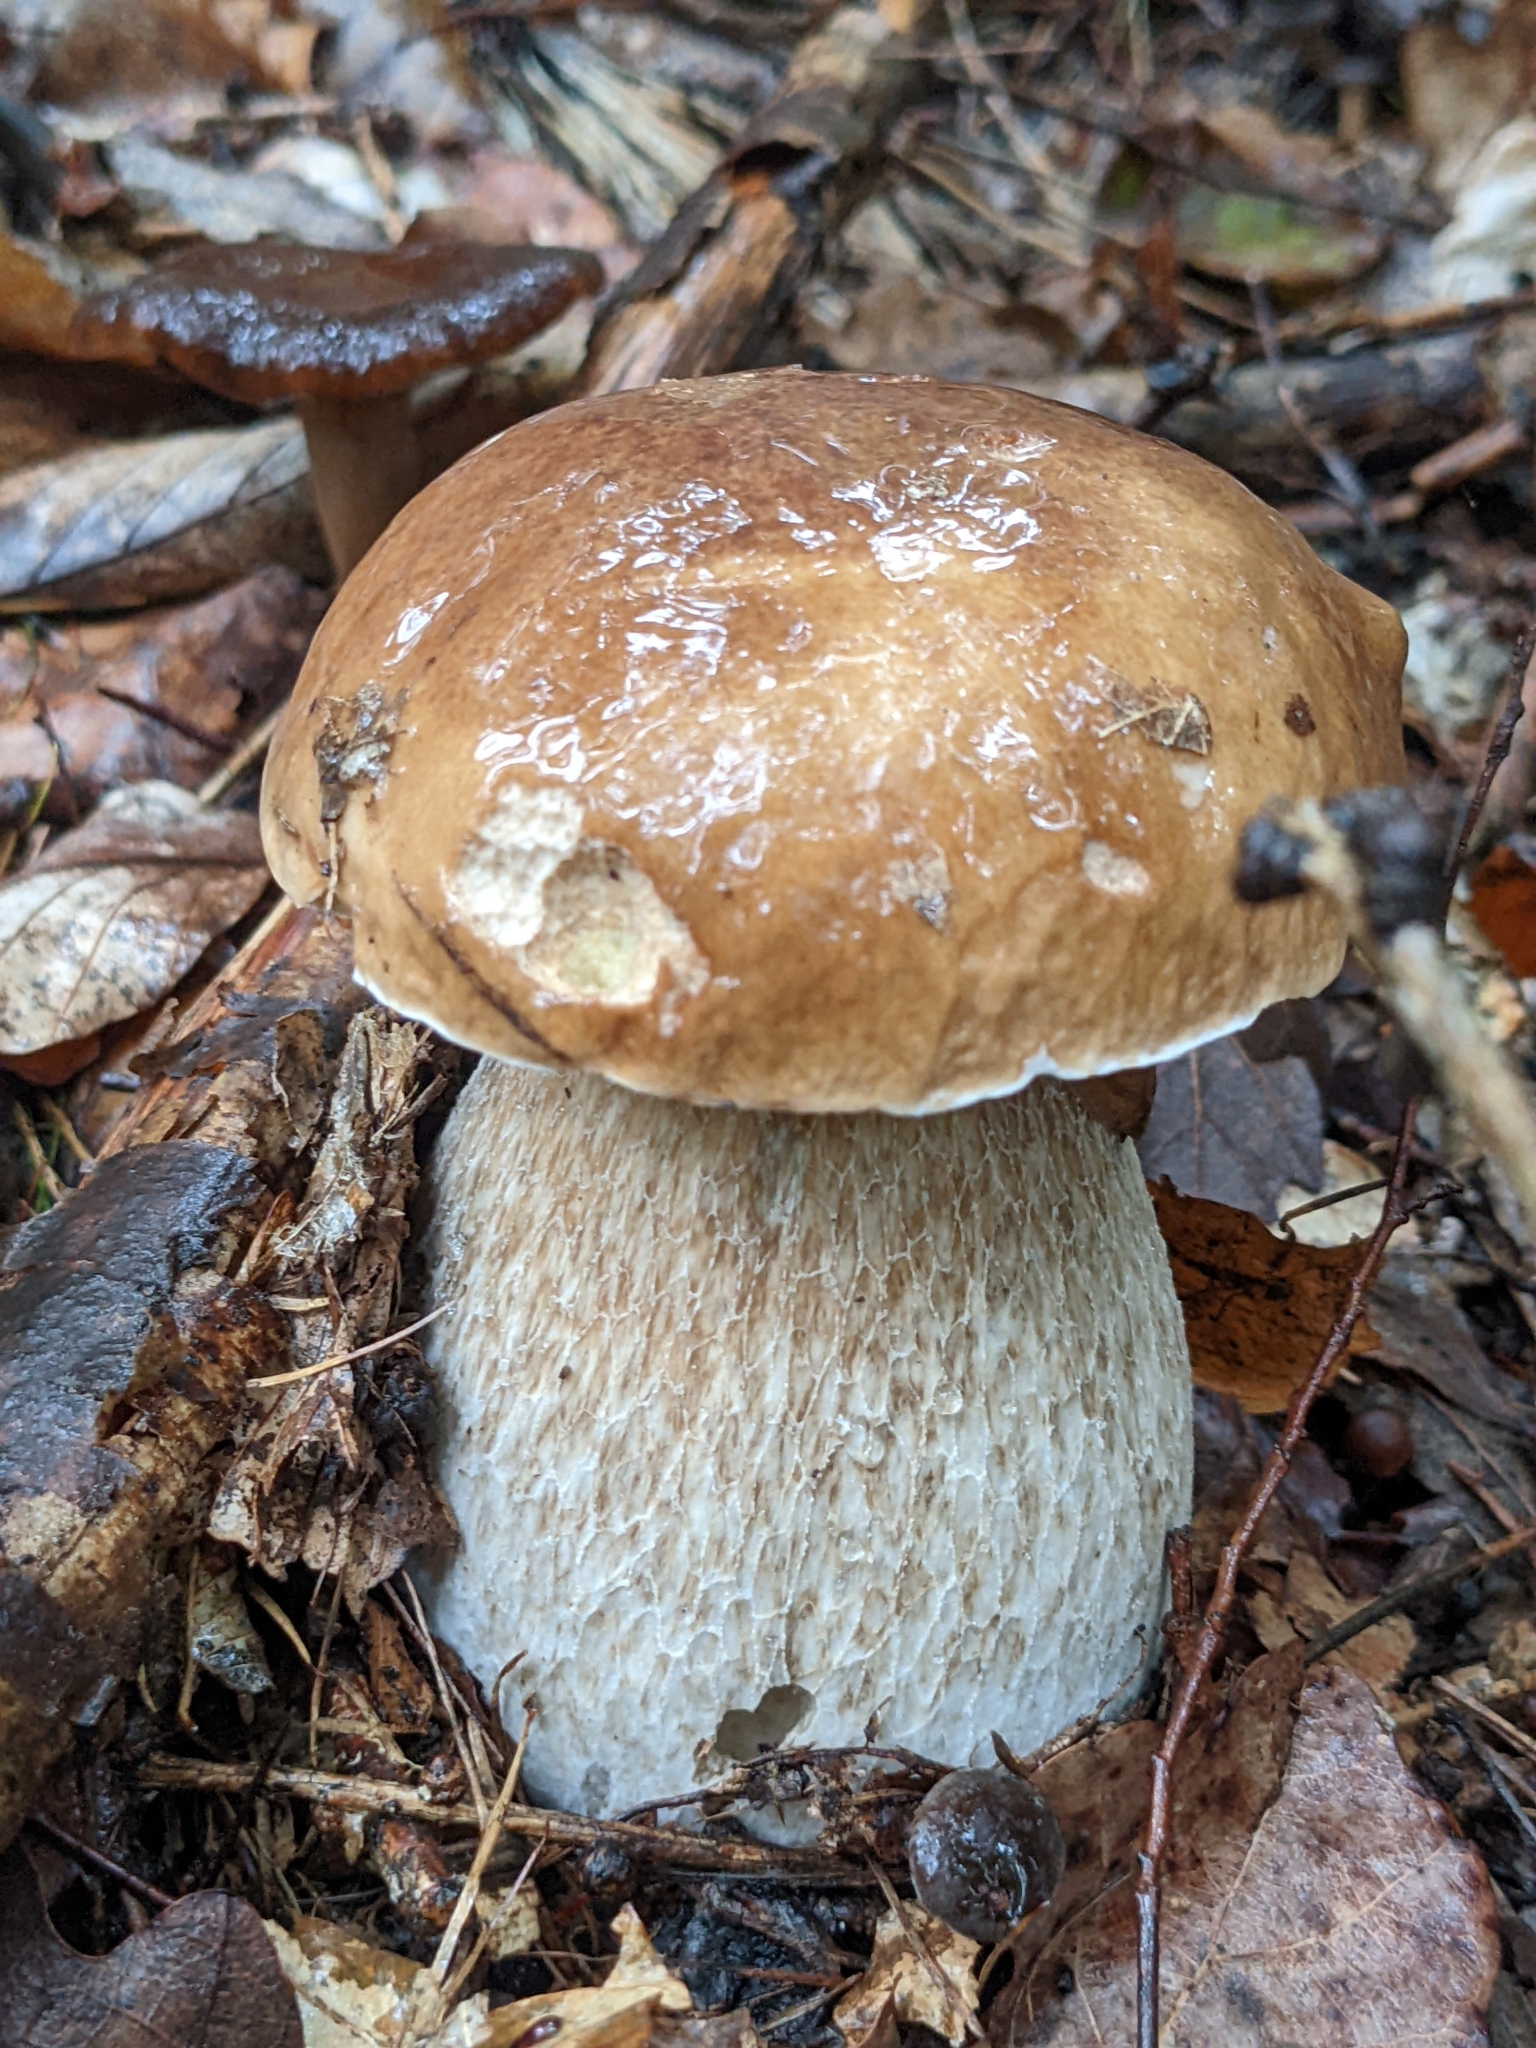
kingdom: Fungi
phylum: Basidiomycota
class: Agaricomycetes
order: Boletales
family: Boletaceae
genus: Boletus
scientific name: Boletus edulis
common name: Cep
